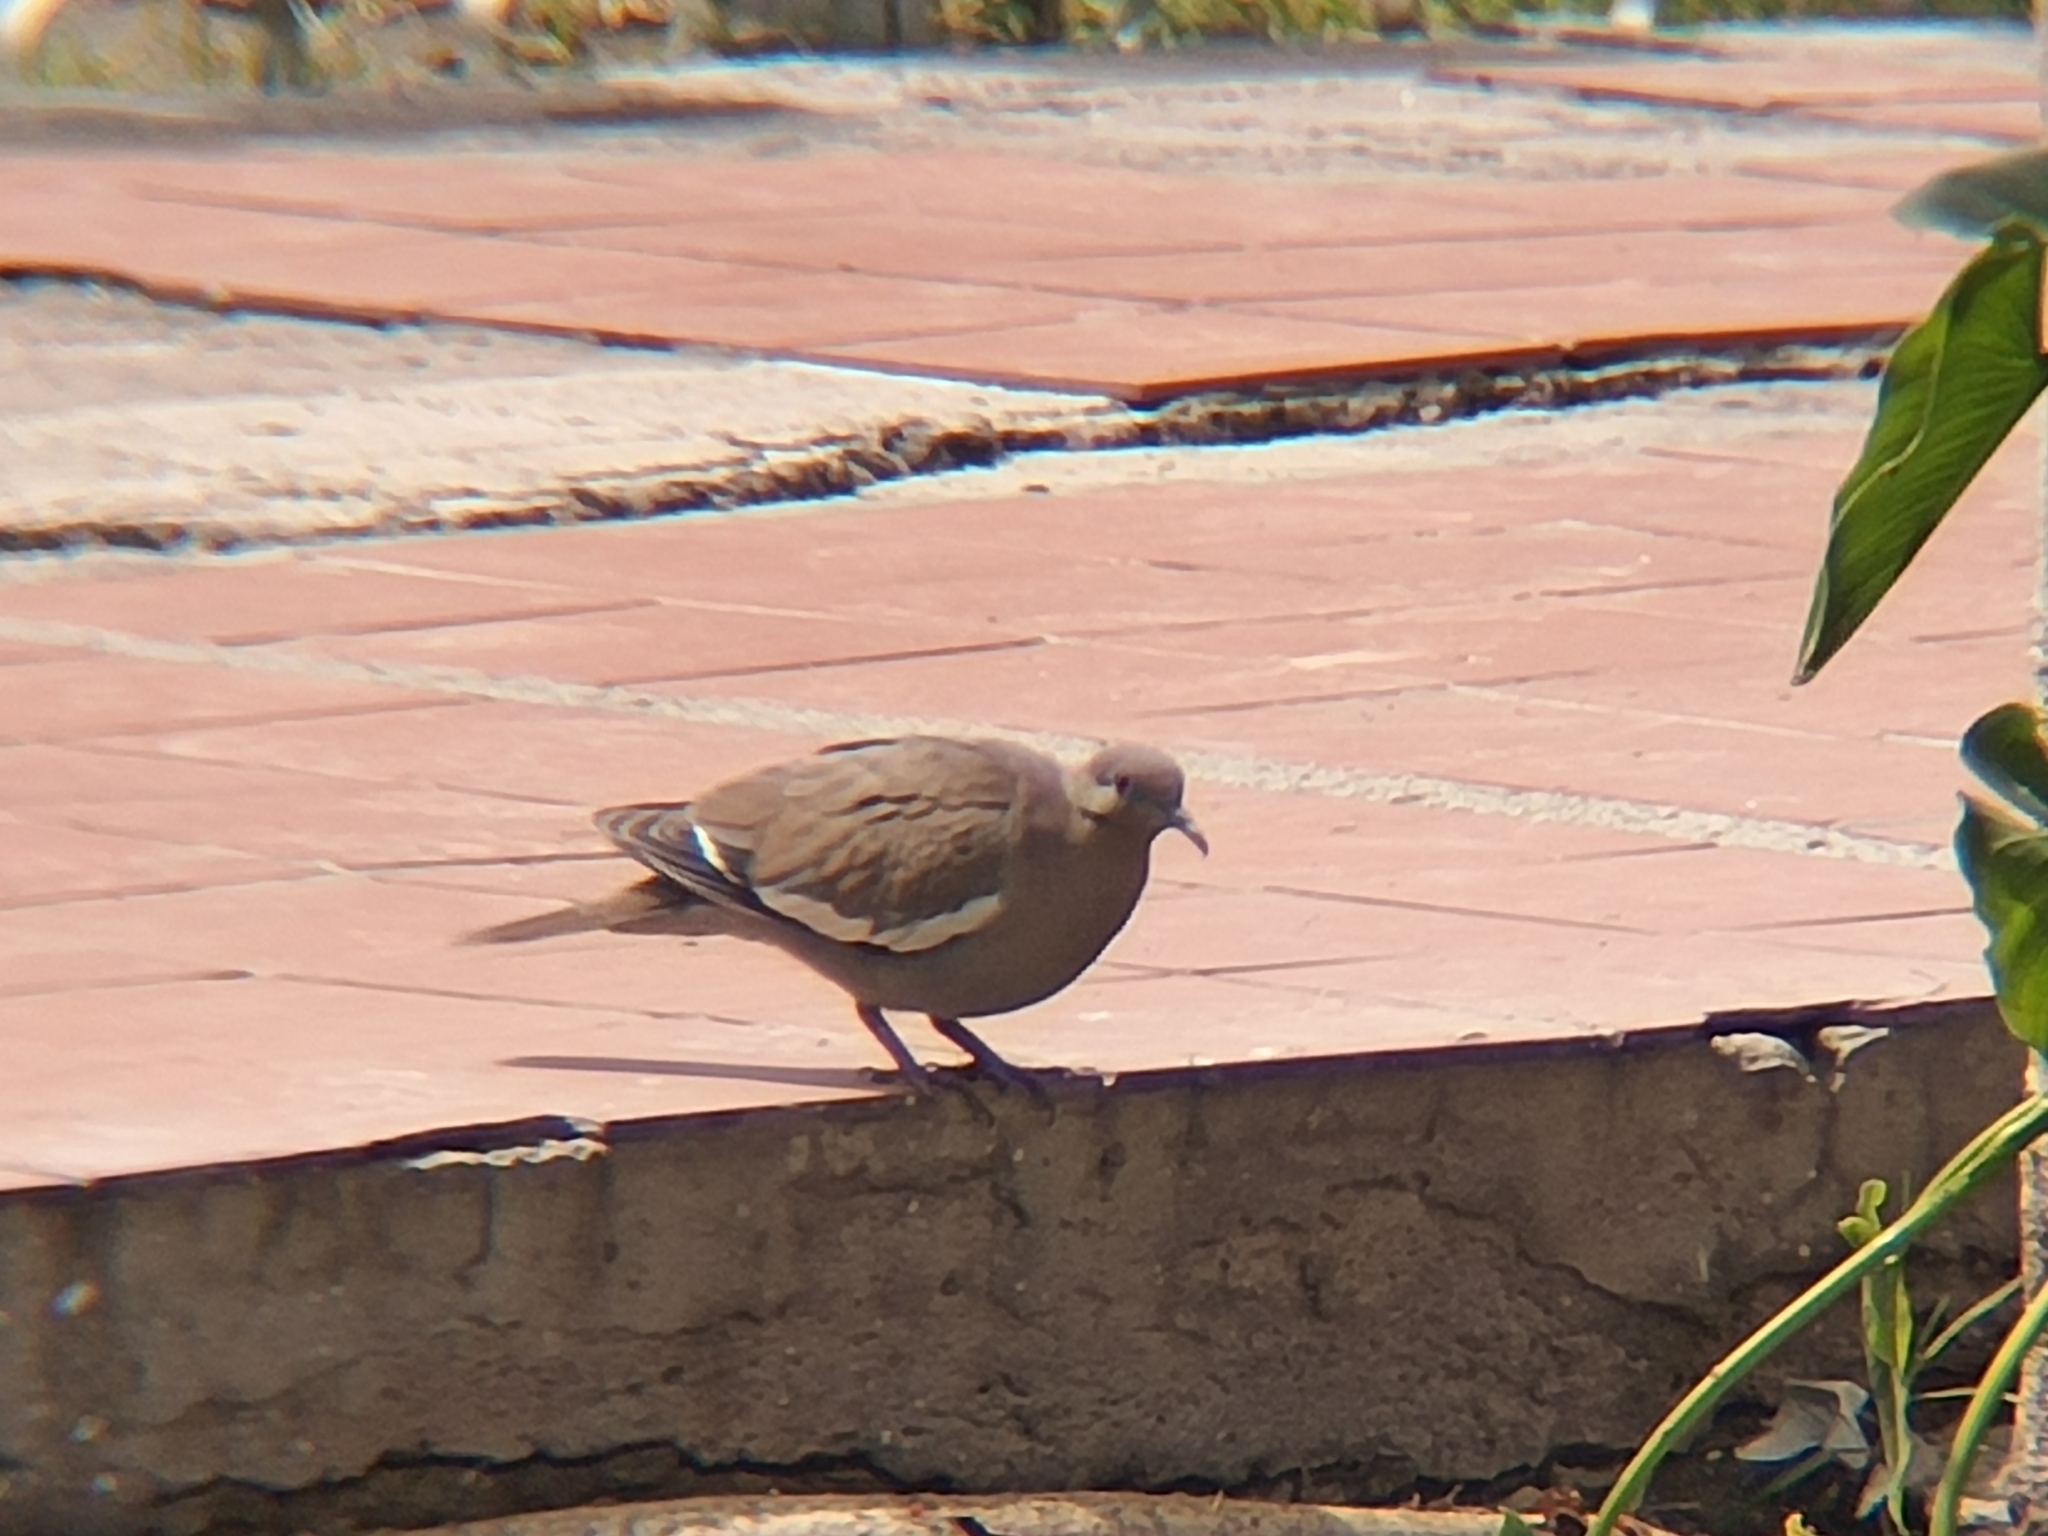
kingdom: Animalia
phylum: Chordata
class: Aves
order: Columbiformes
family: Columbidae
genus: Zenaida
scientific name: Zenaida asiatica
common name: White-winged dove
